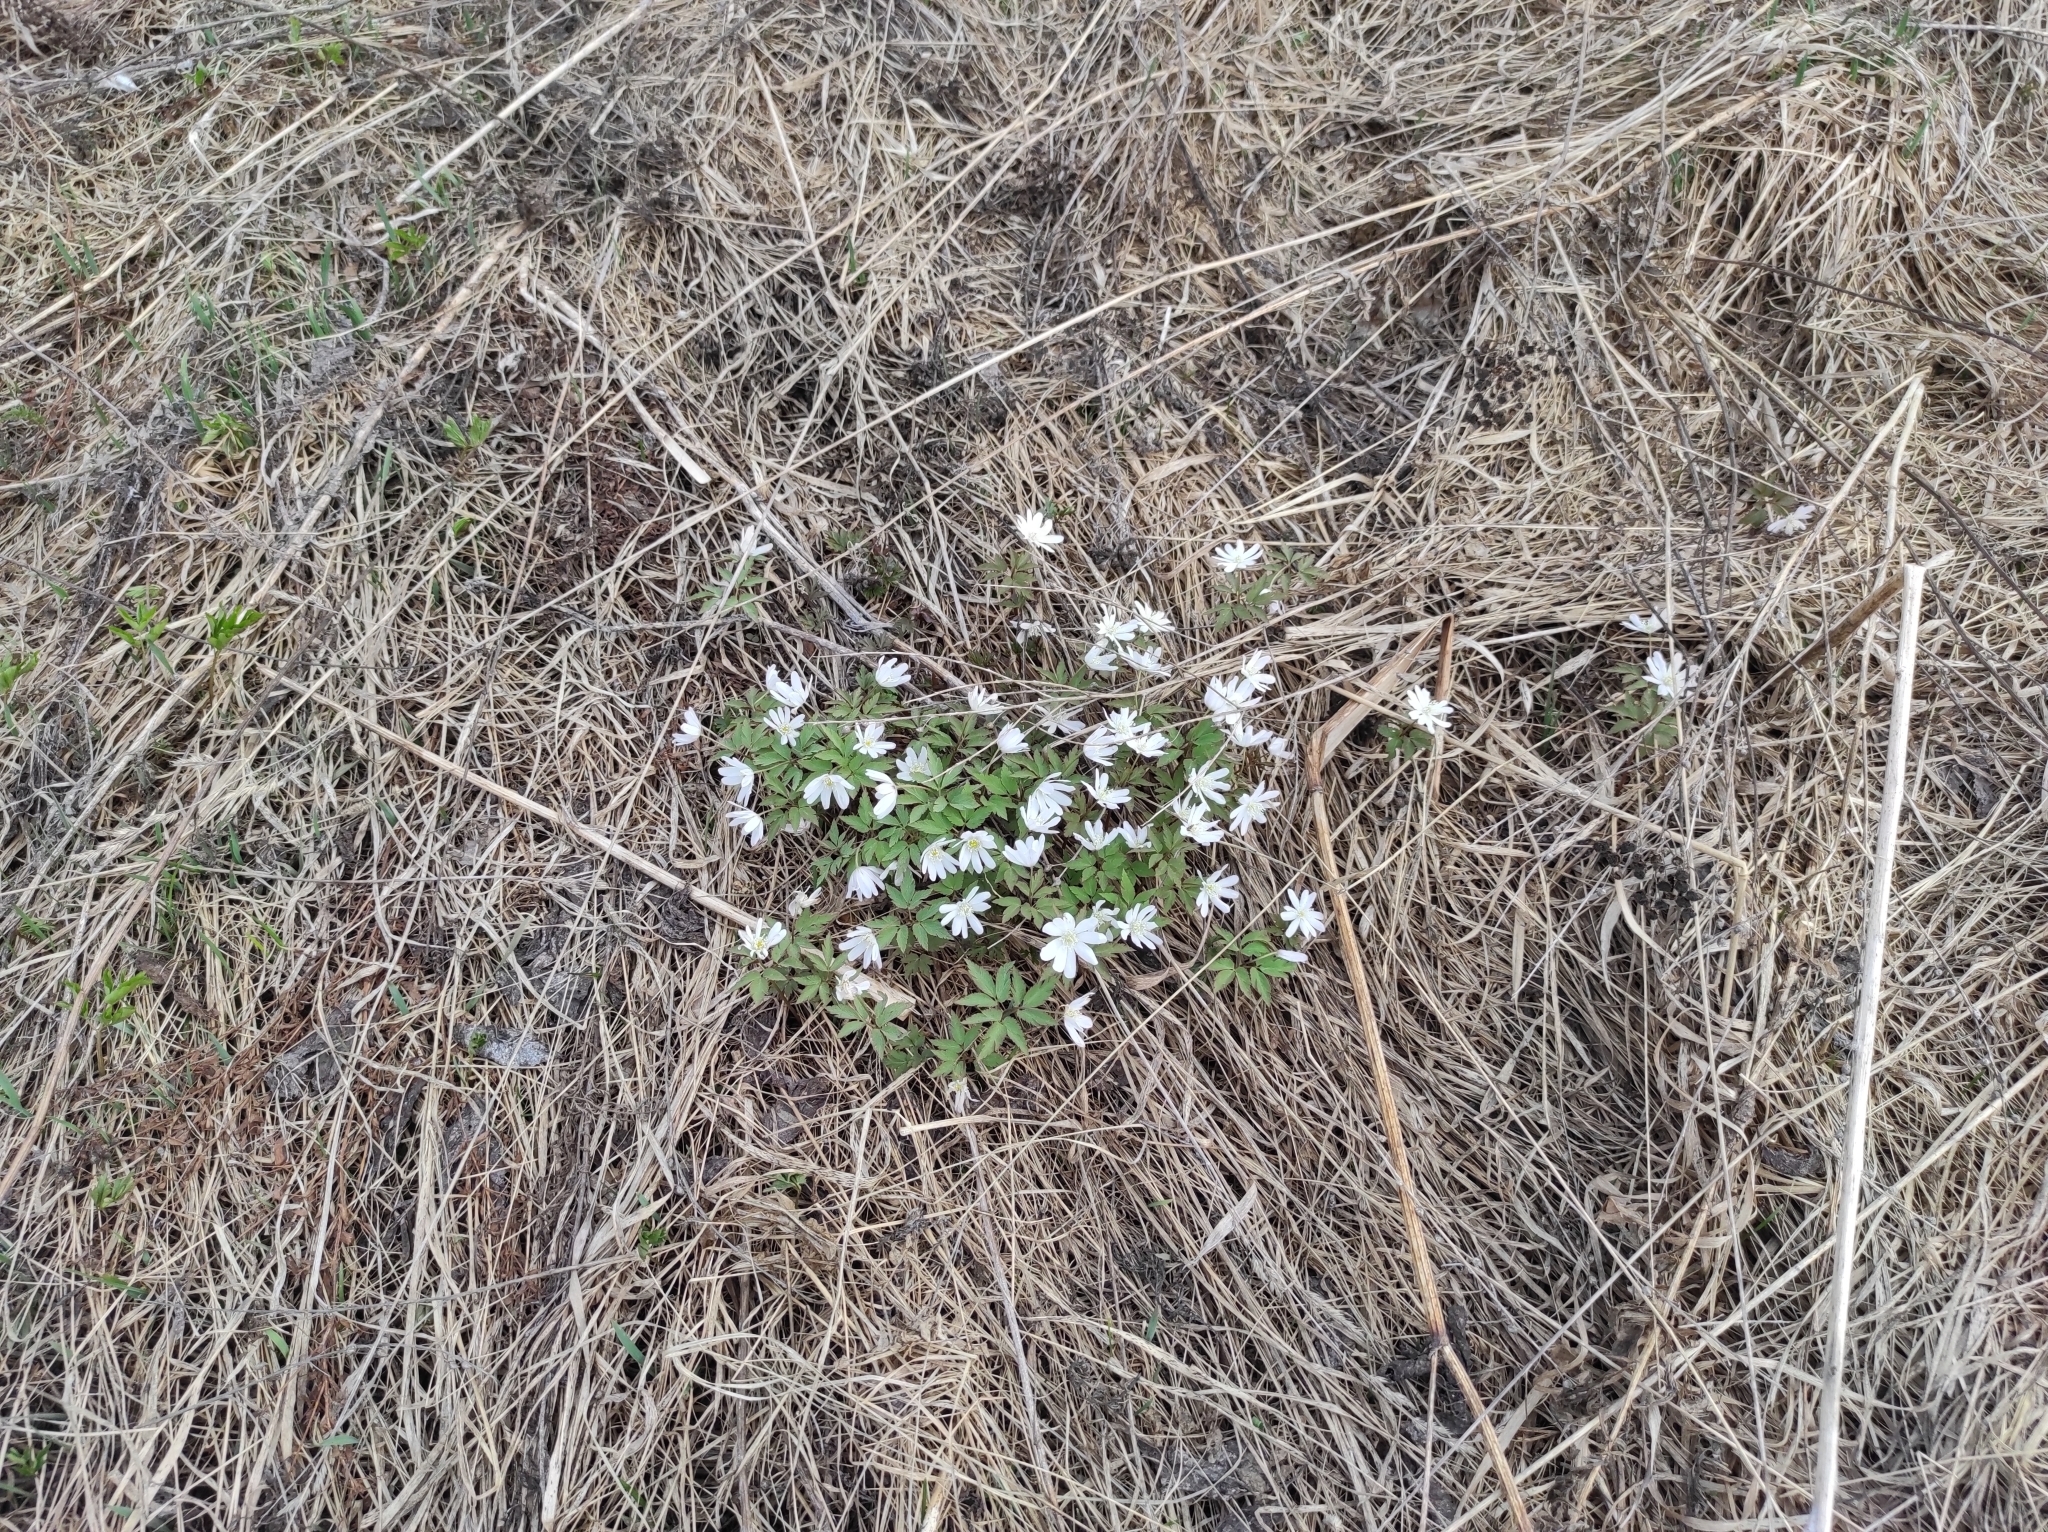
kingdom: Plantae
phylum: Tracheophyta
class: Magnoliopsida
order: Ranunculales
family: Ranunculaceae
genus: Anemone
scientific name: Anemone altaica
